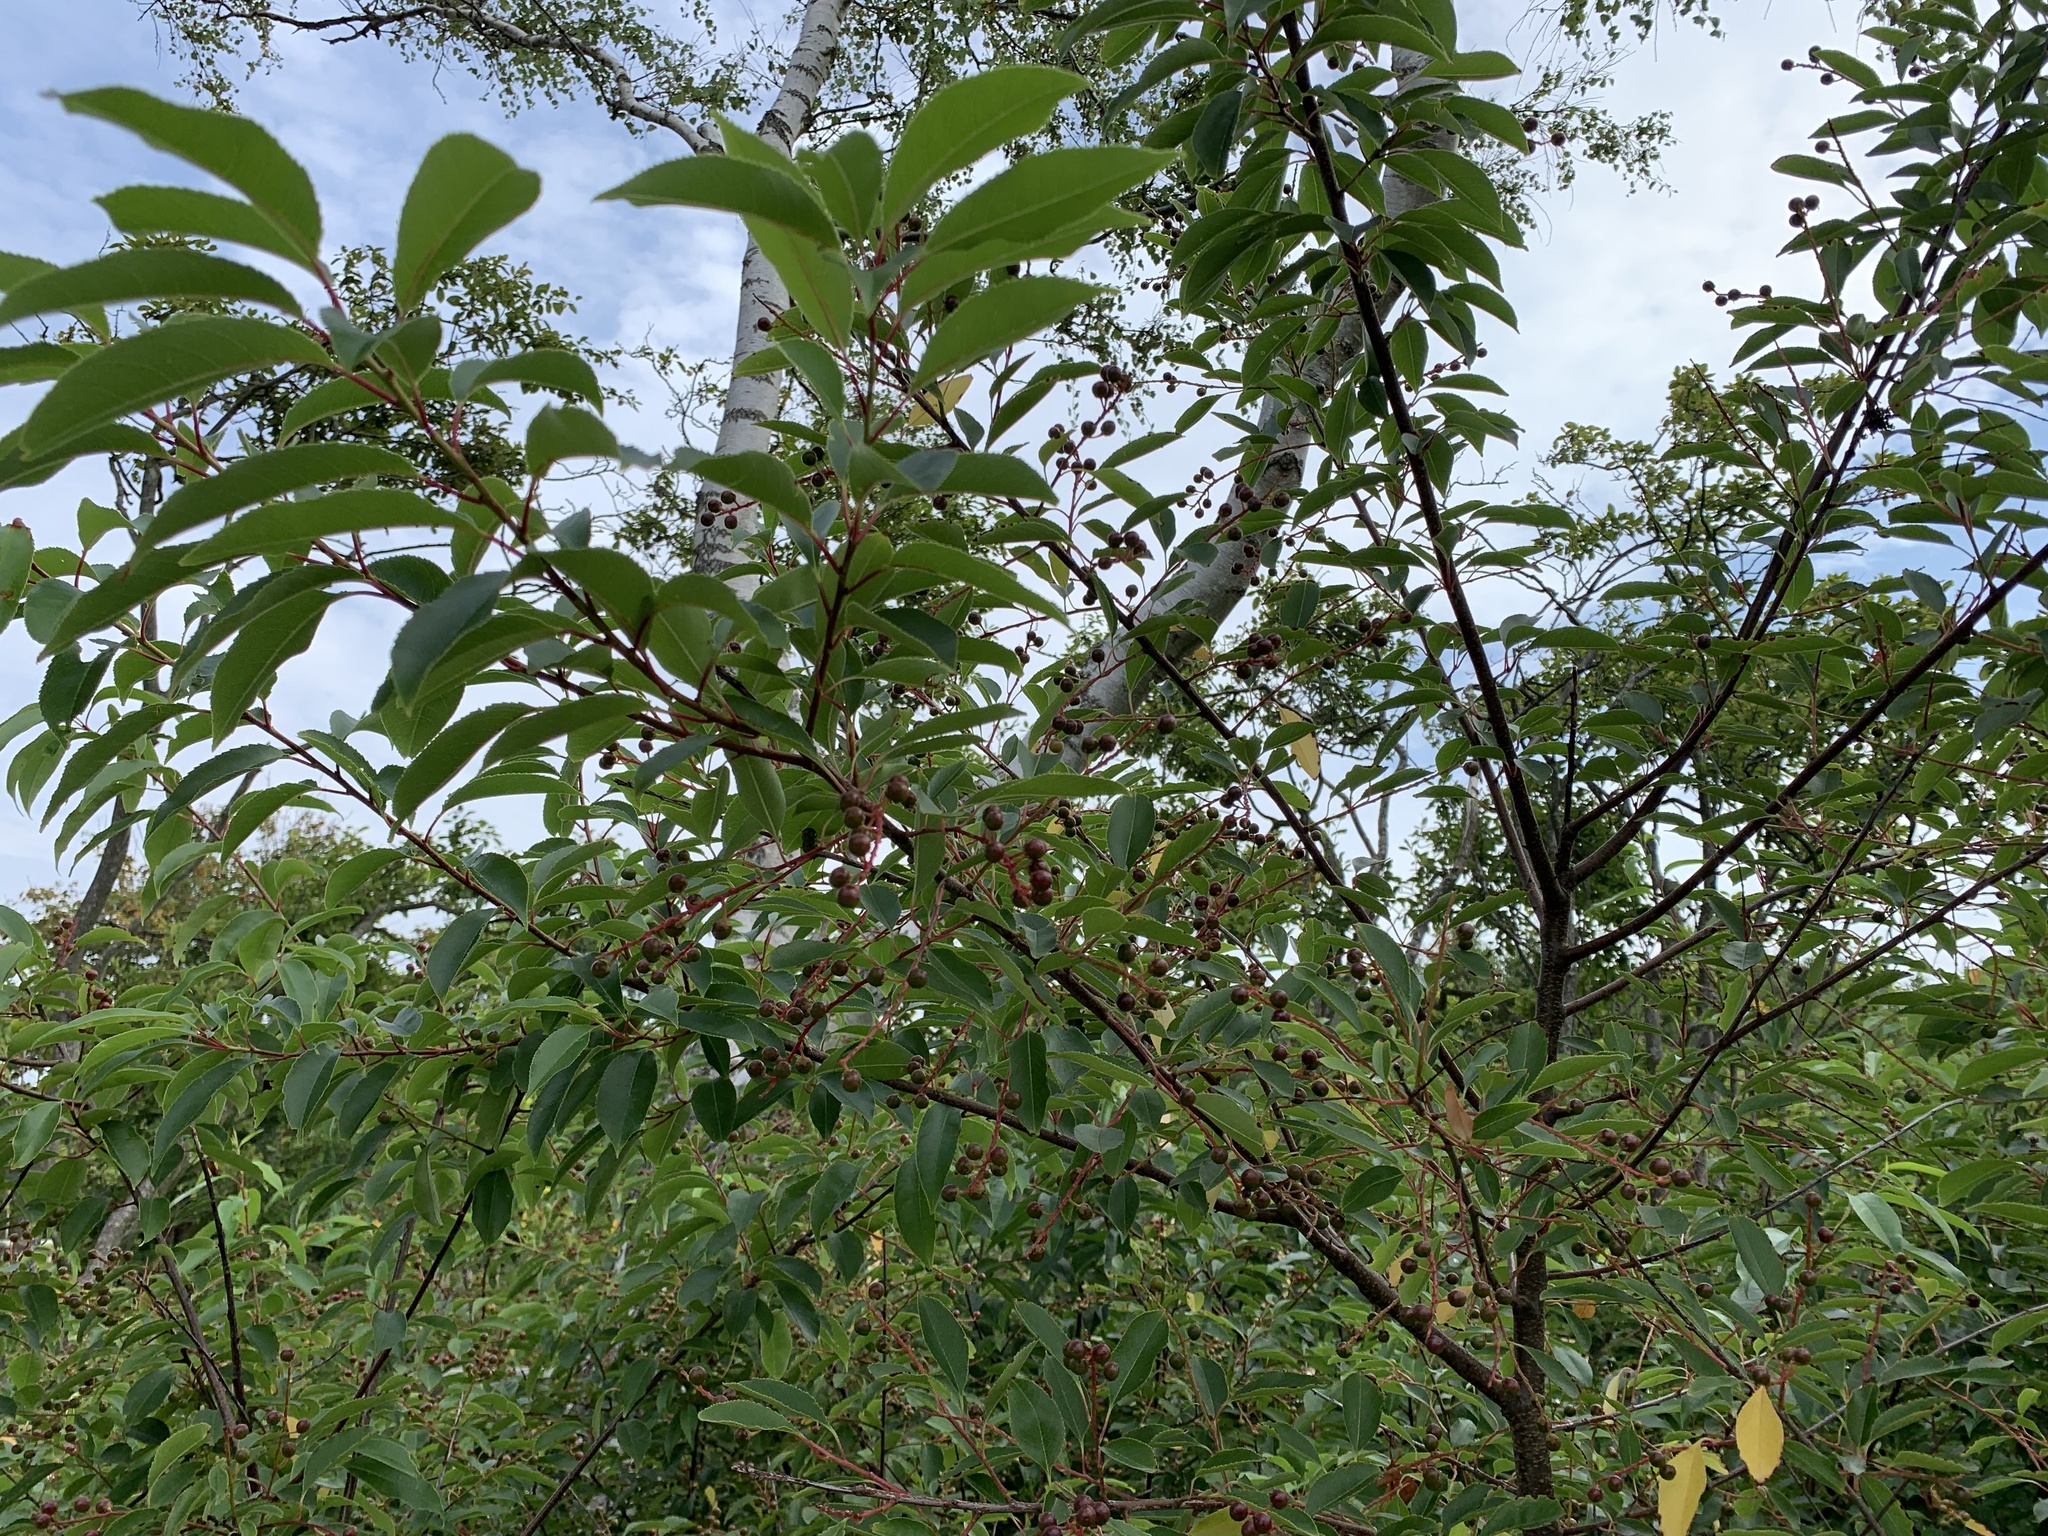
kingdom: Plantae
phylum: Tracheophyta
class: Magnoliopsida
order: Rosales
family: Rosaceae
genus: Prunus
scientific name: Prunus serotina
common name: Black cherry
